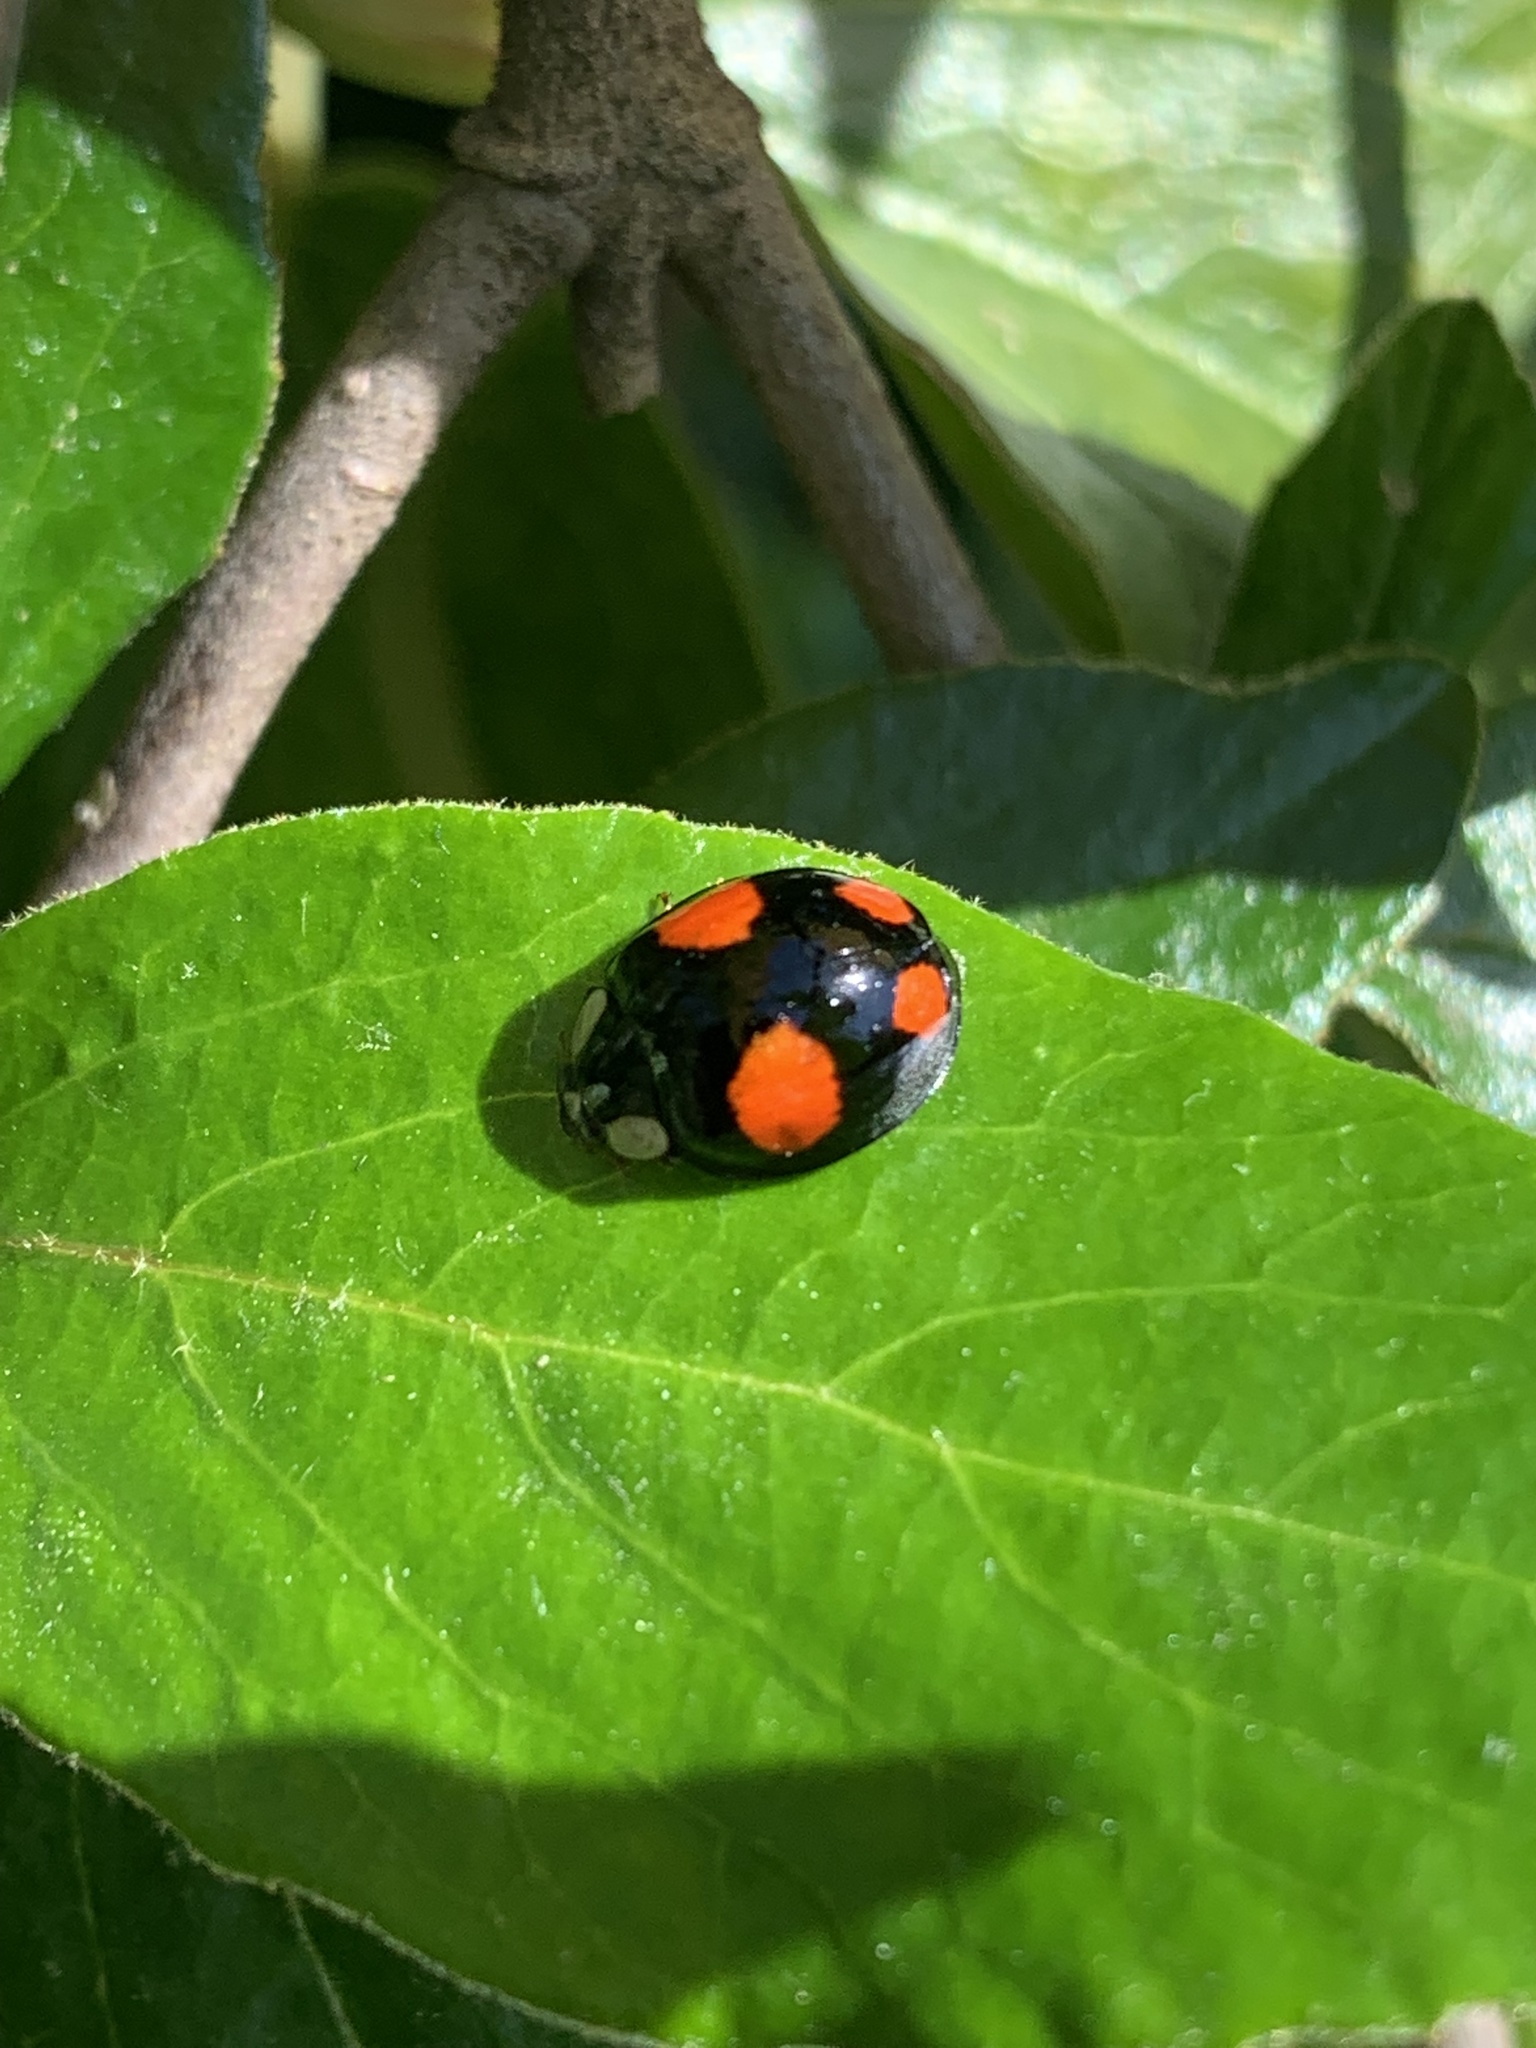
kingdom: Animalia
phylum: Arthropoda
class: Insecta
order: Coleoptera
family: Coccinellidae
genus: Harmonia
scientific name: Harmonia axyridis
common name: Harlequin ladybird
